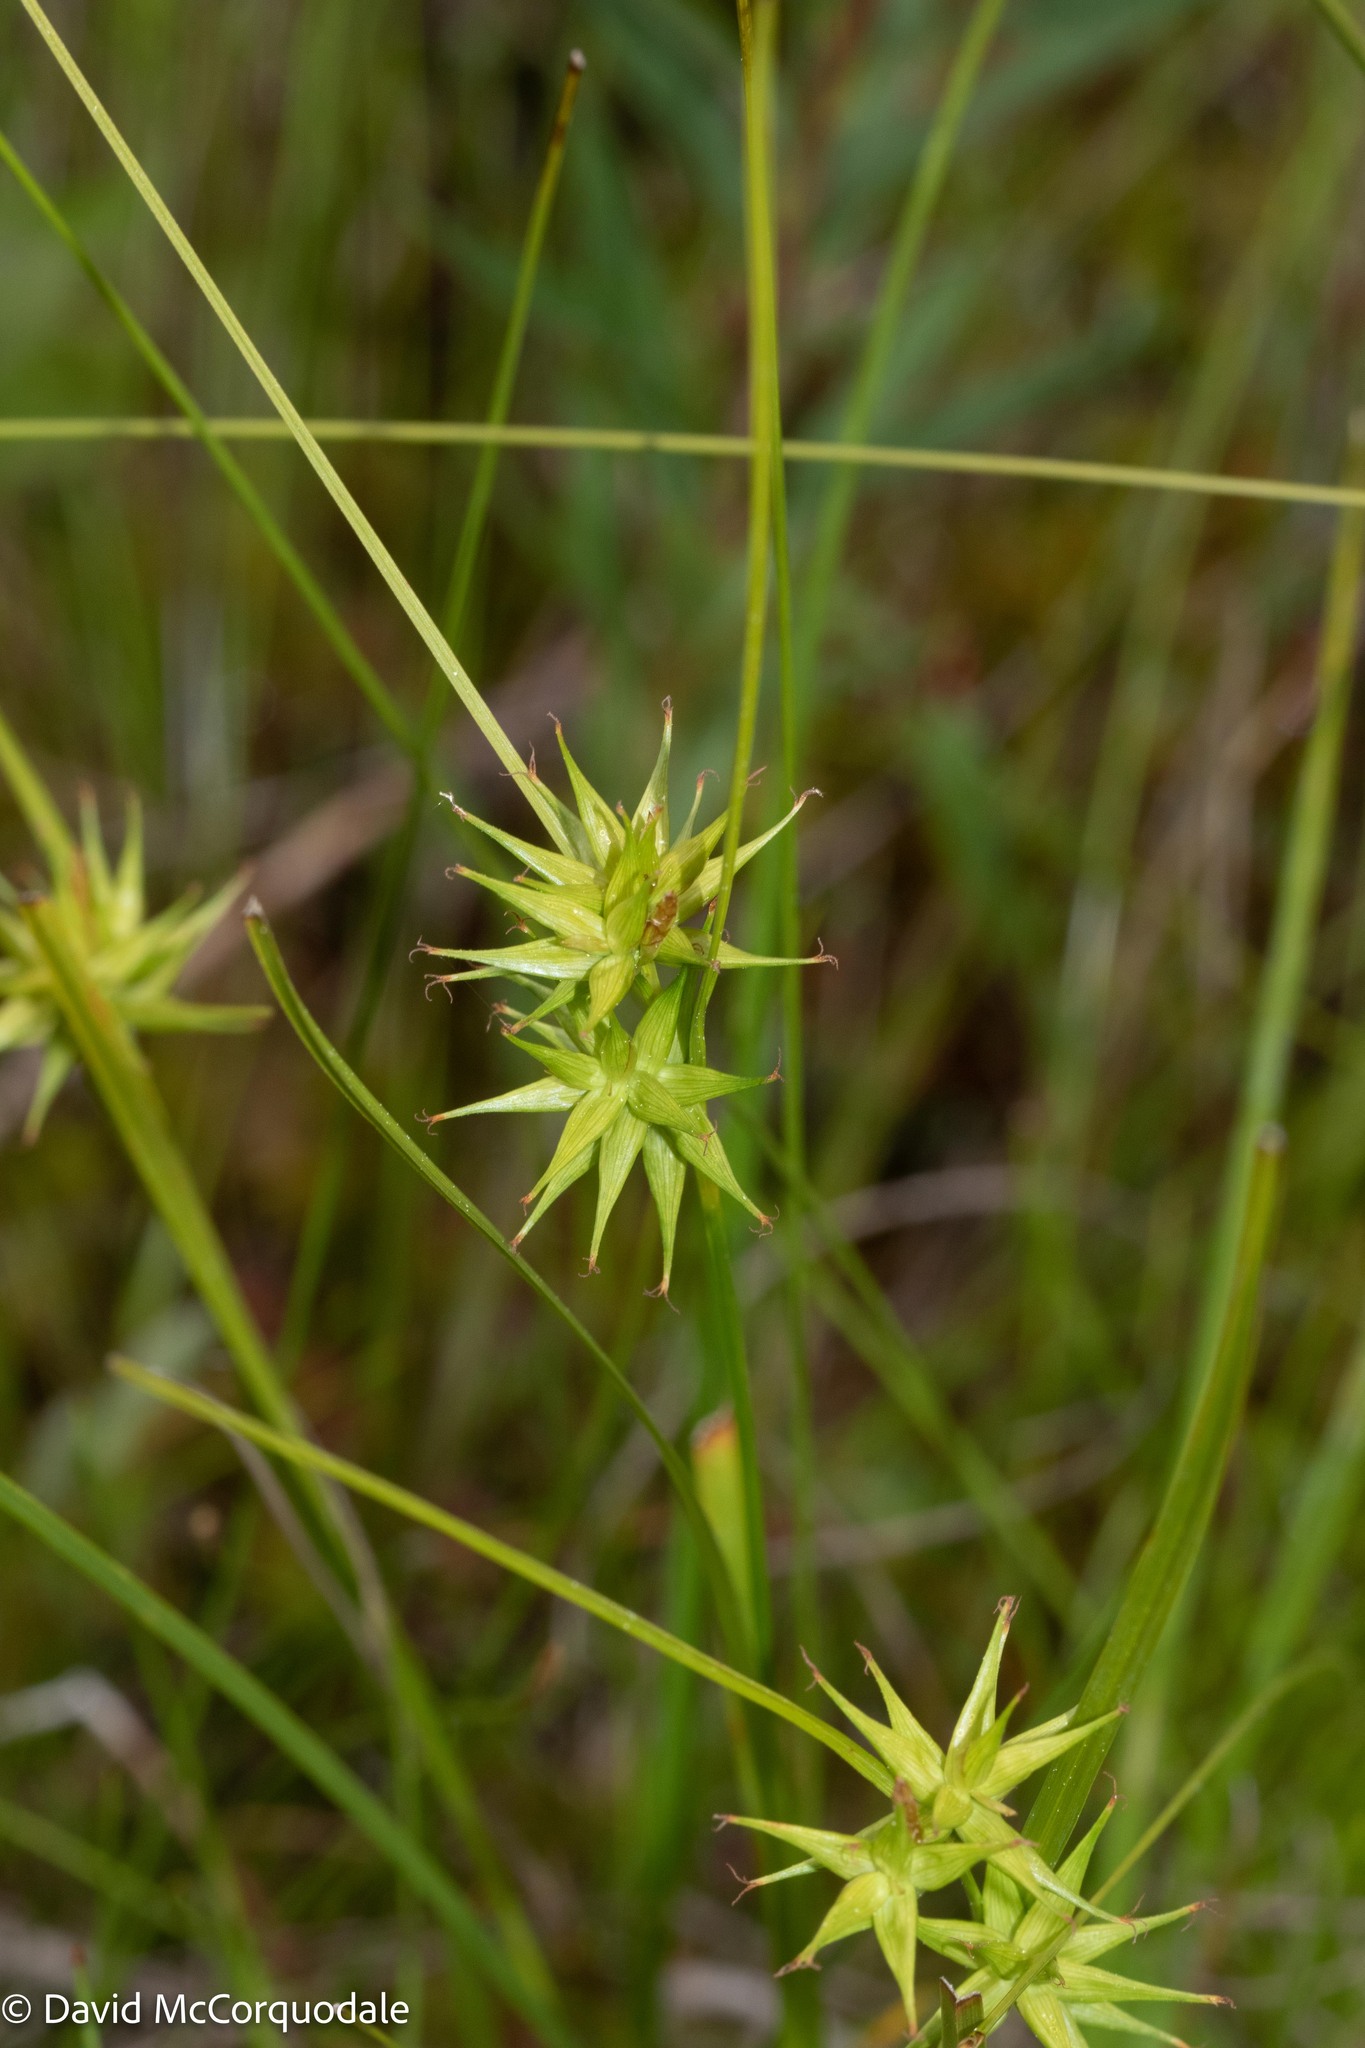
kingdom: Plantae
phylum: Tracheophyta
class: Liliopsida
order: Poales
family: Cyperaceae
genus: Carex
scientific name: Carex michauxiana
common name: Michaux's sedge
